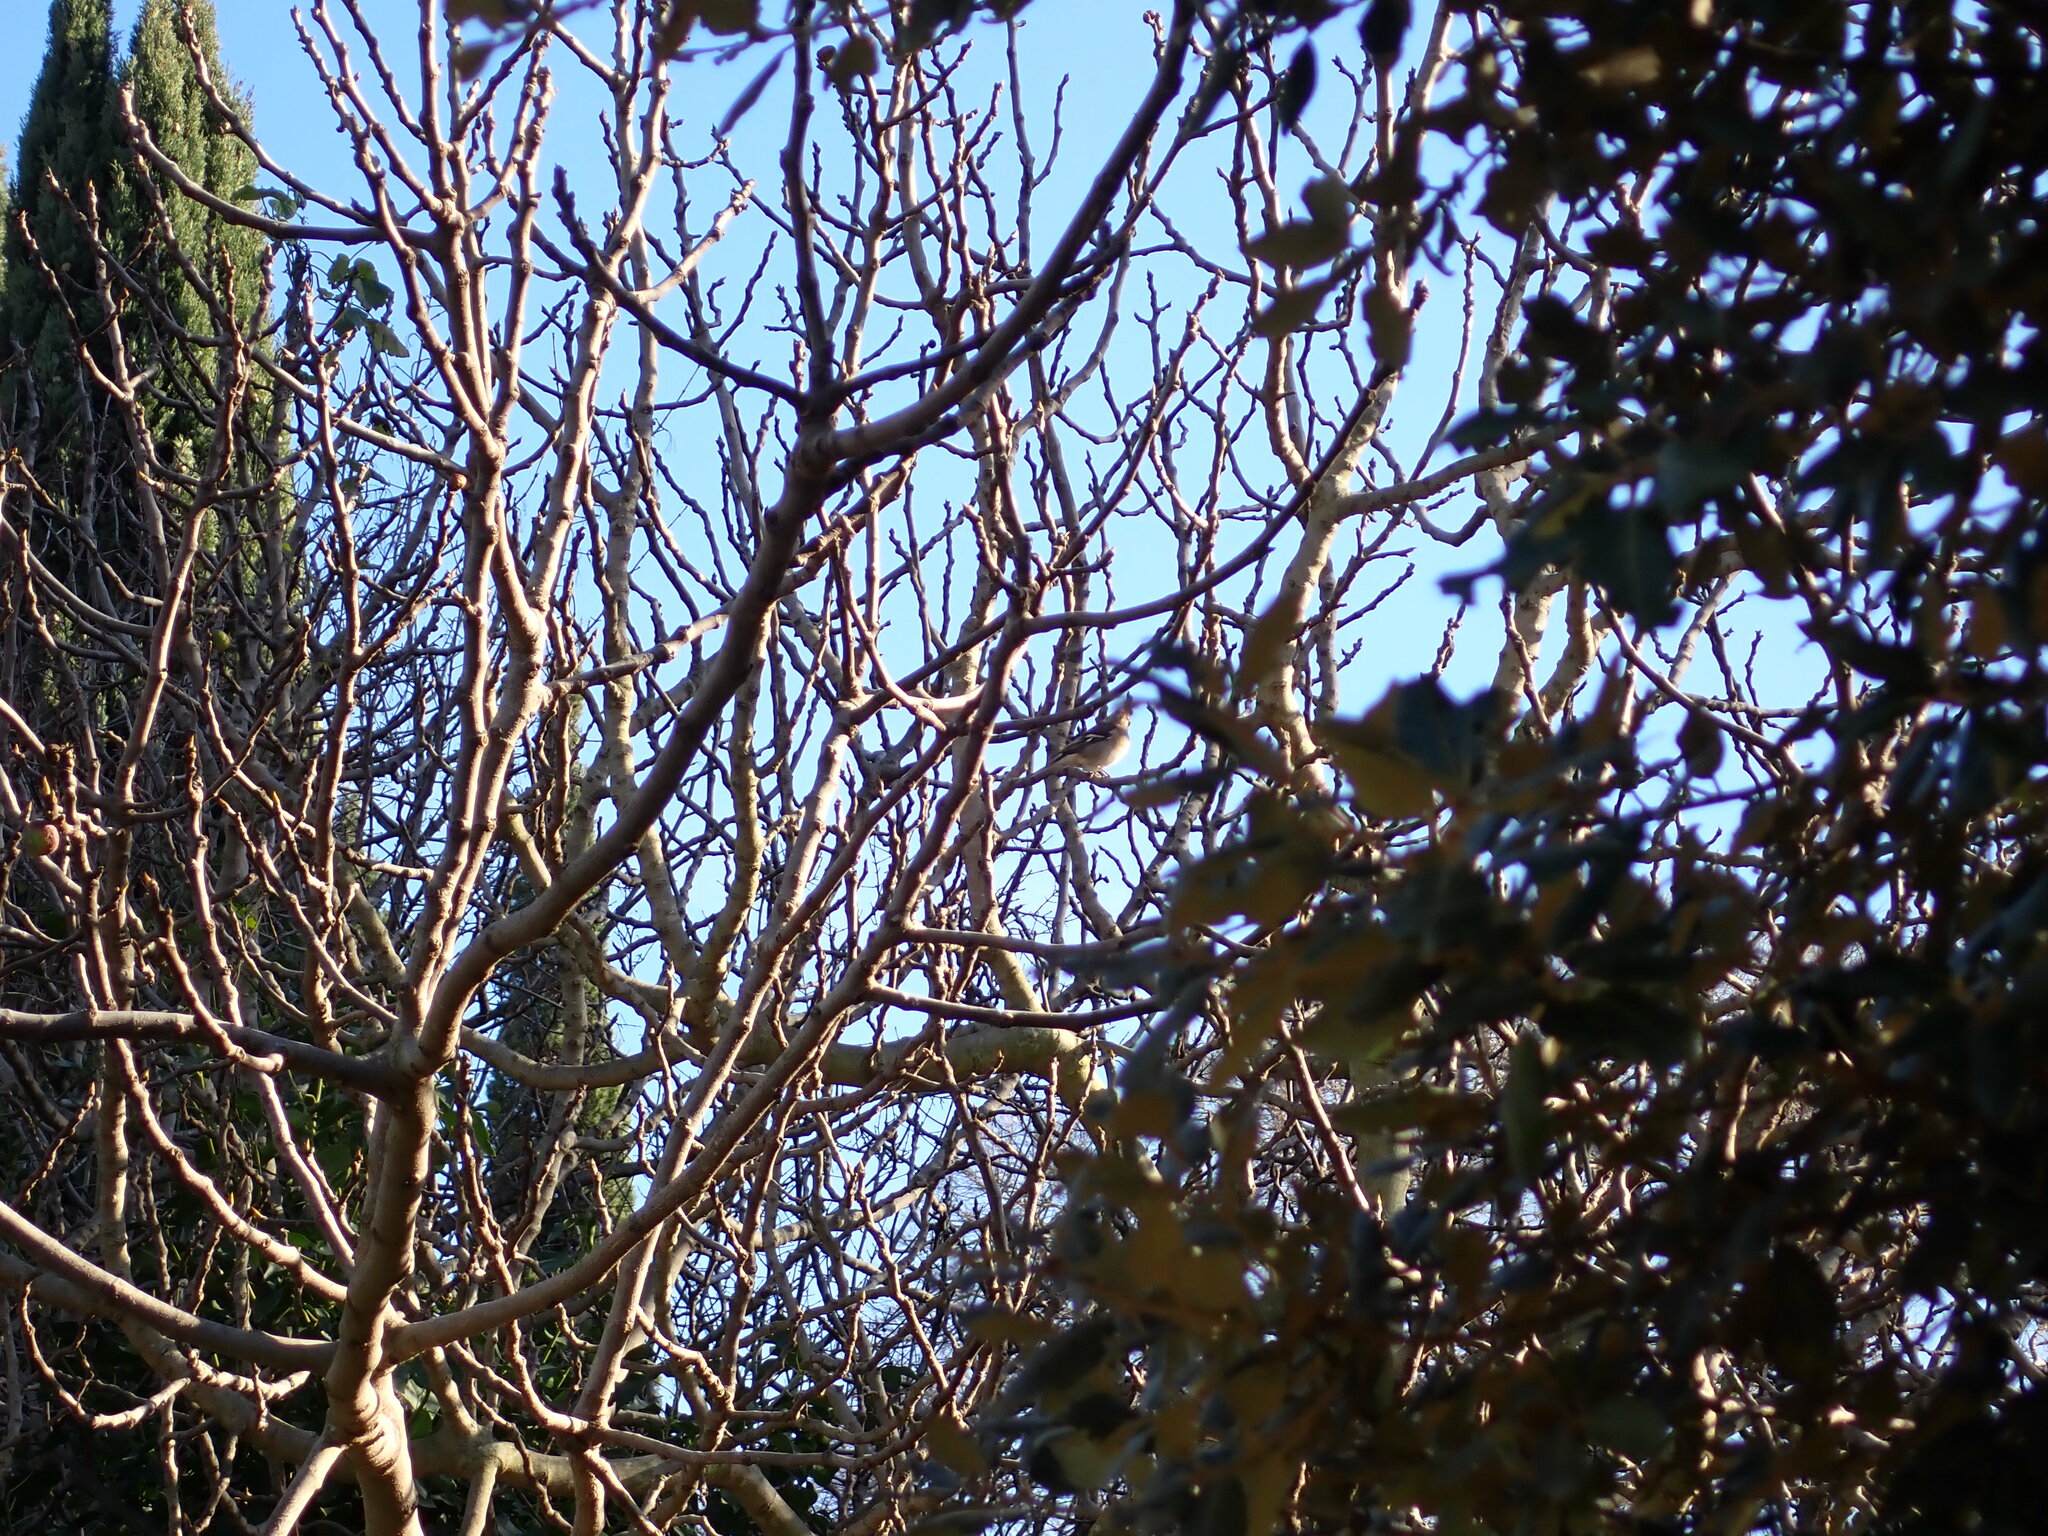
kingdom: Animalia
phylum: Chordata
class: Aves
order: Passeriformes
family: Fringillidae
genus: Fringilla
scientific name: Fringilla coelebs
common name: Common chaffinch
